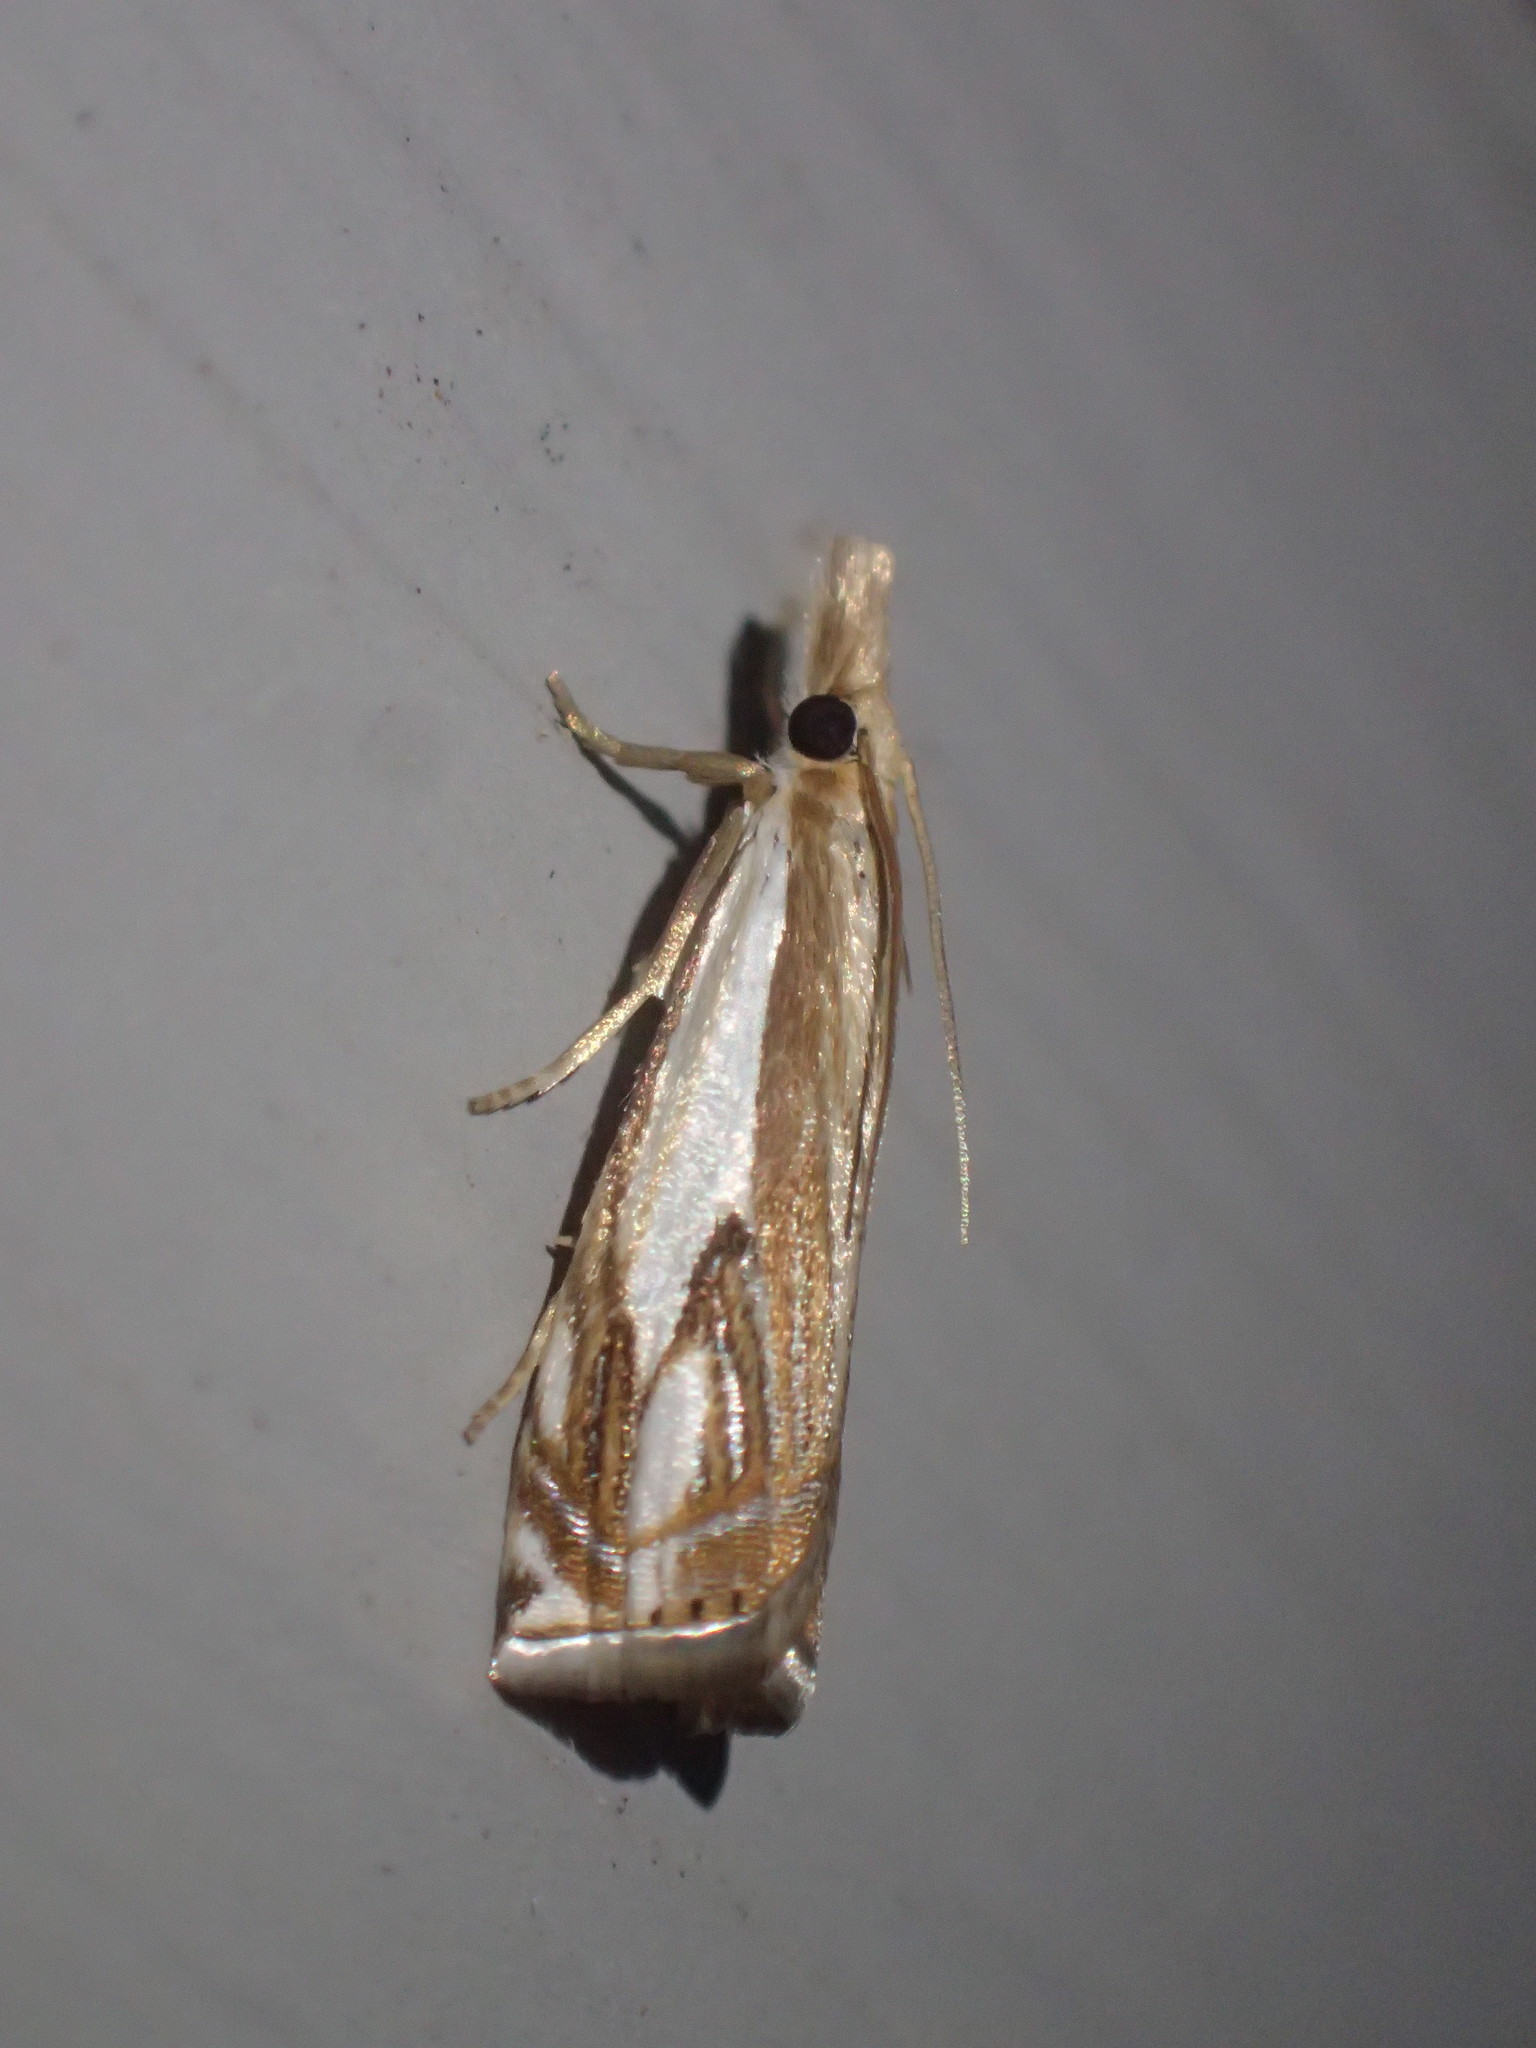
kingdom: Animalia
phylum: Arthropoda
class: Insecta
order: Lepidoptera
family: Crambidae
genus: Crambus
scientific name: Crambus agitatellus
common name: Double-banded grass-veneer
